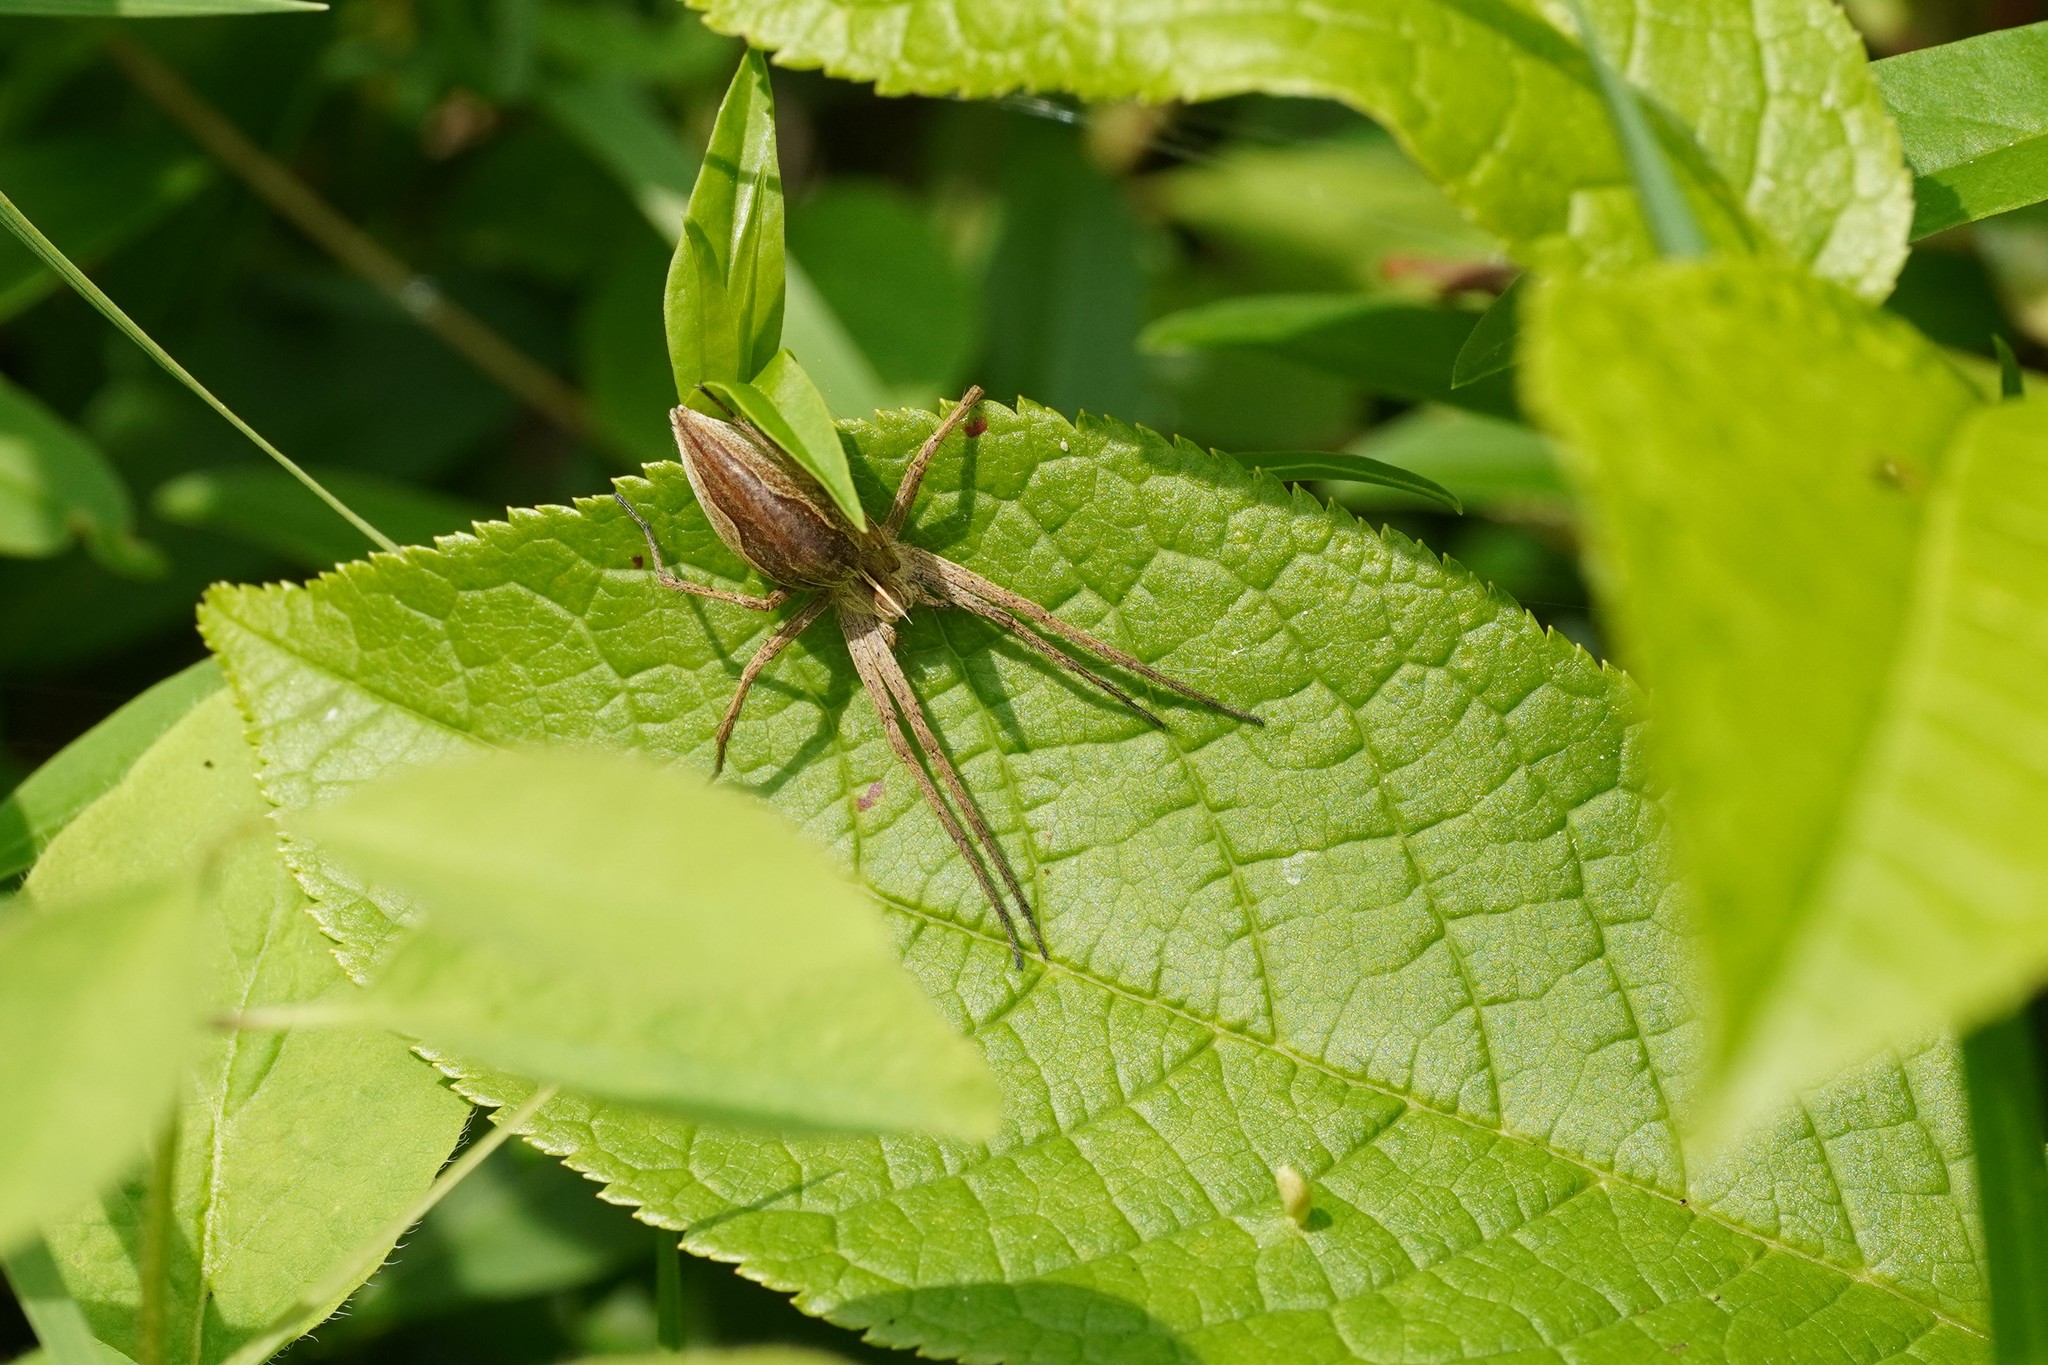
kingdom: Animalia
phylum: Arthropoda
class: Arachnida
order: Araneae
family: Pisauridae
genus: Pisaura
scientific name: Pisaura mirabilis
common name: Tent spider
